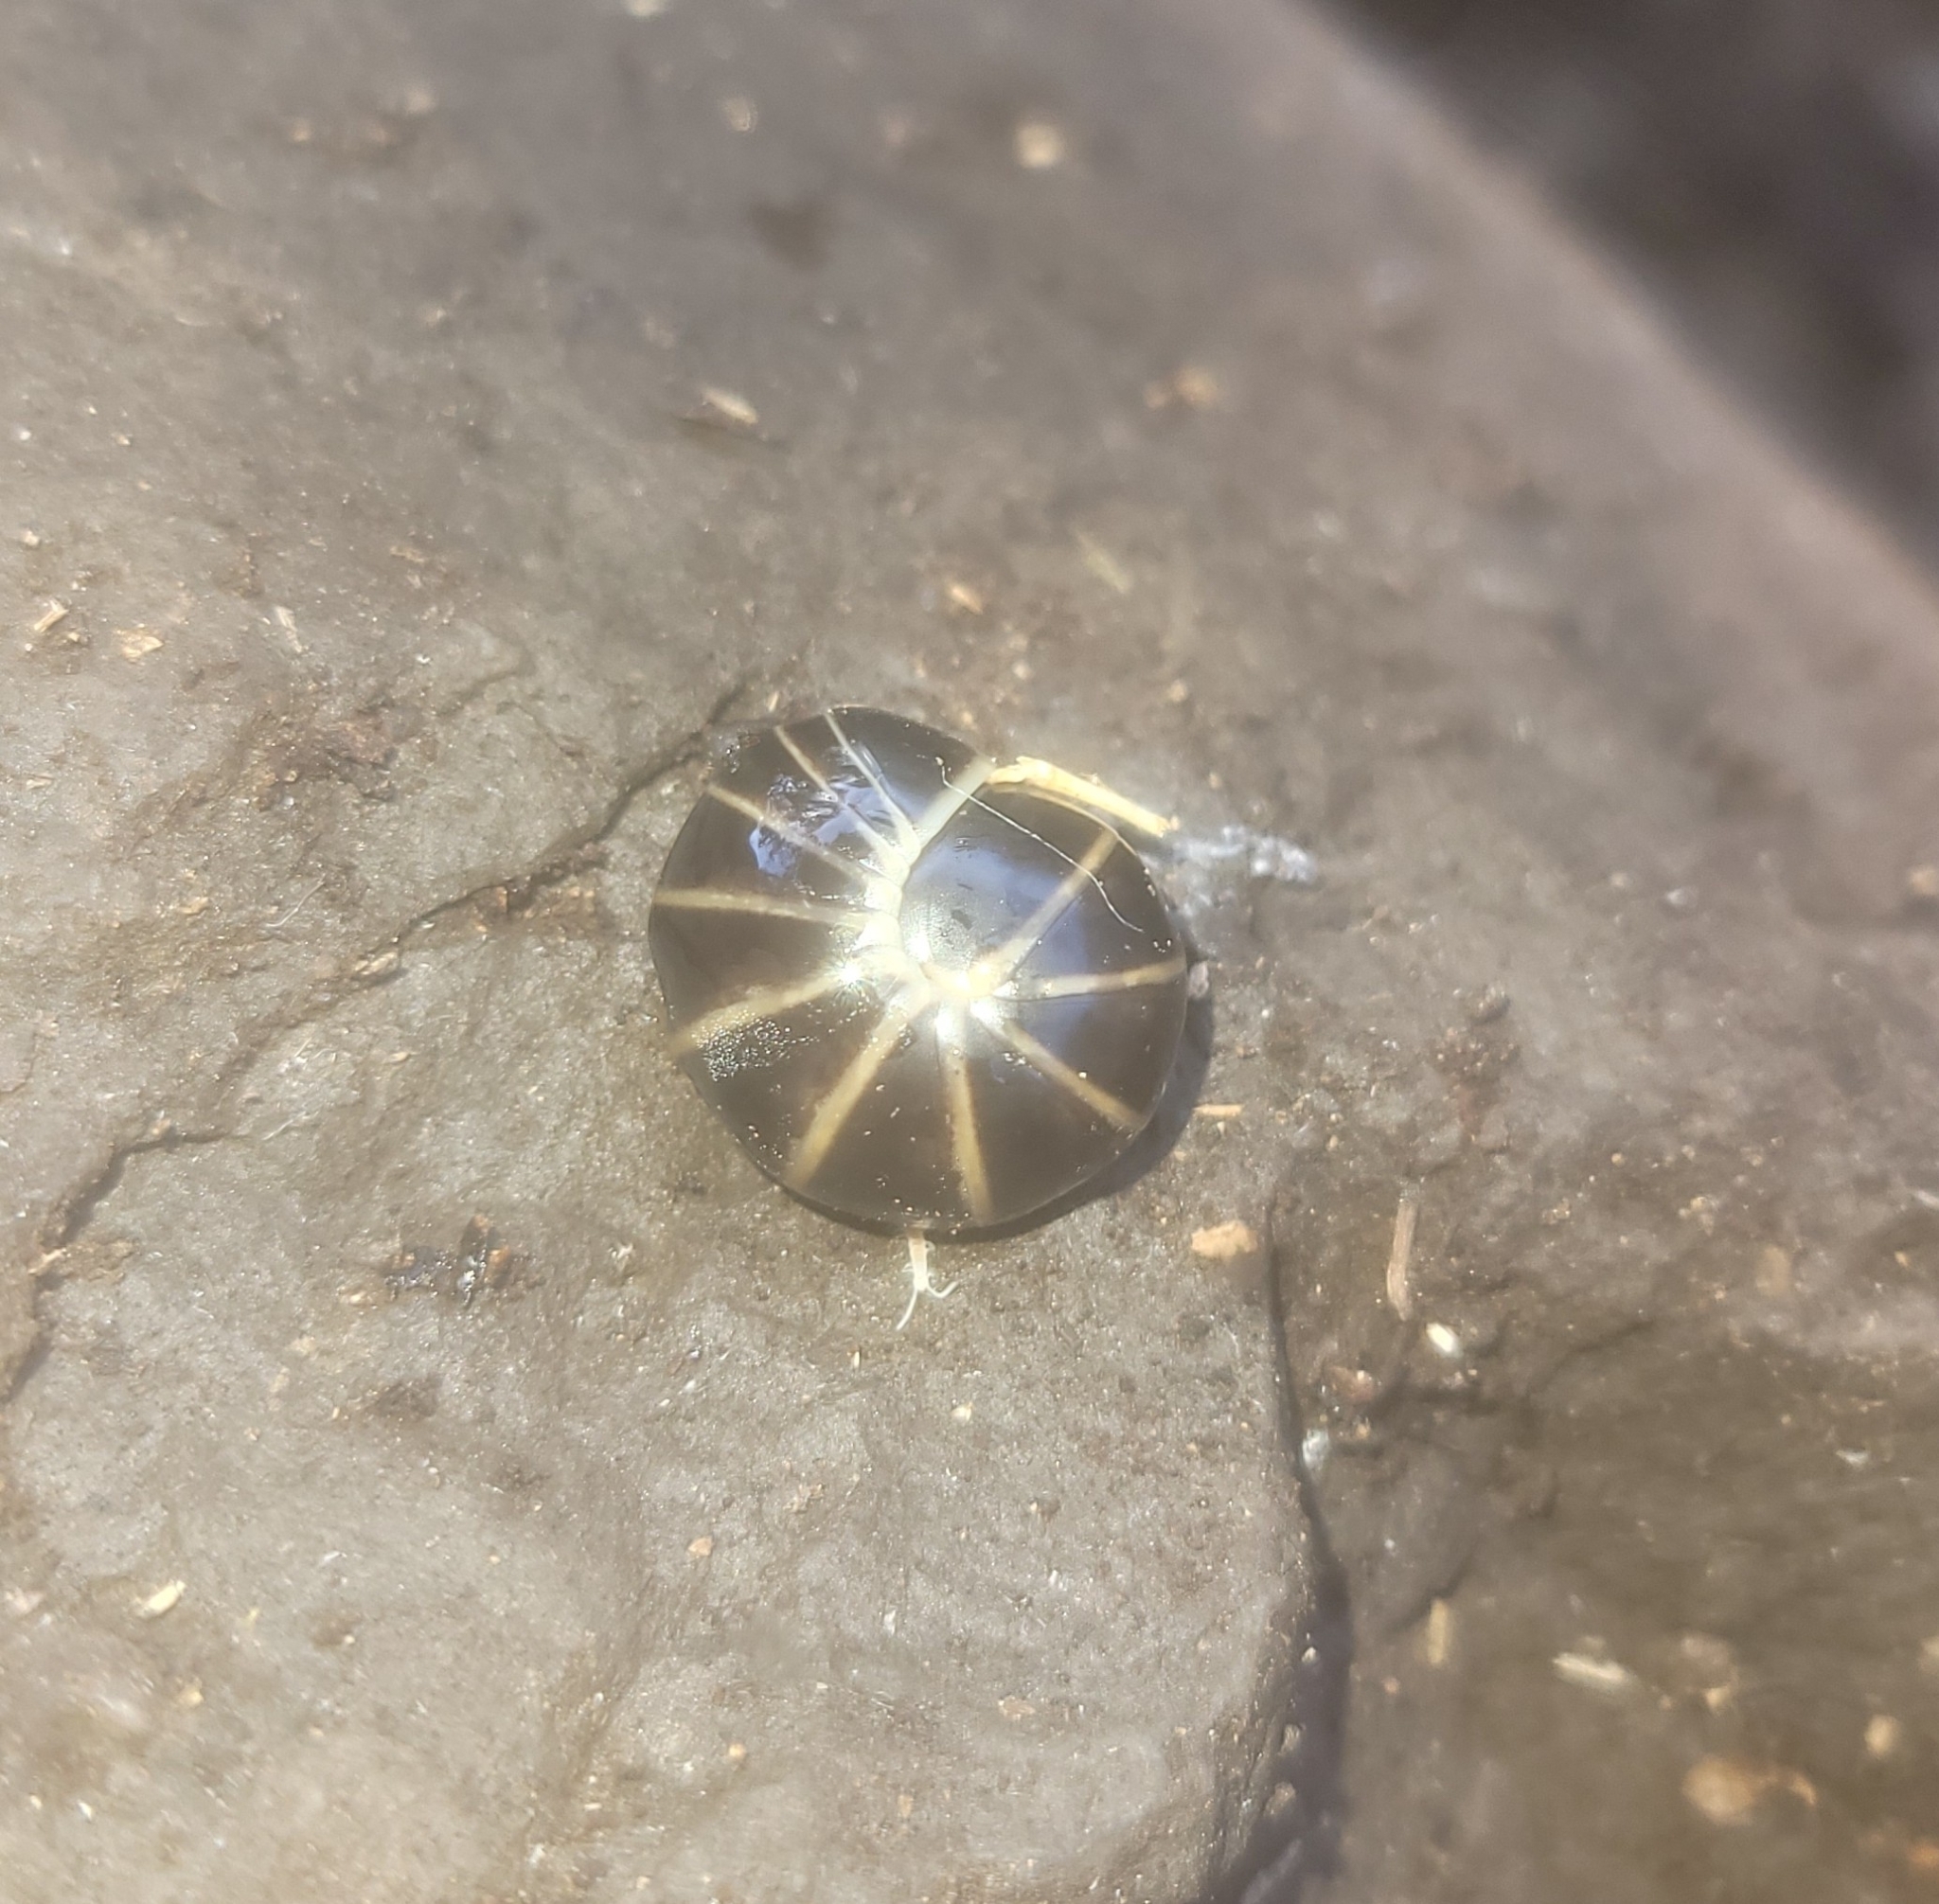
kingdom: Animalia
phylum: Arthropoda
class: Diplopoda
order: Glomerida
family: Glomeridae
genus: Glomeris
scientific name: Glomeris marginata
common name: Bordered pill millipede
